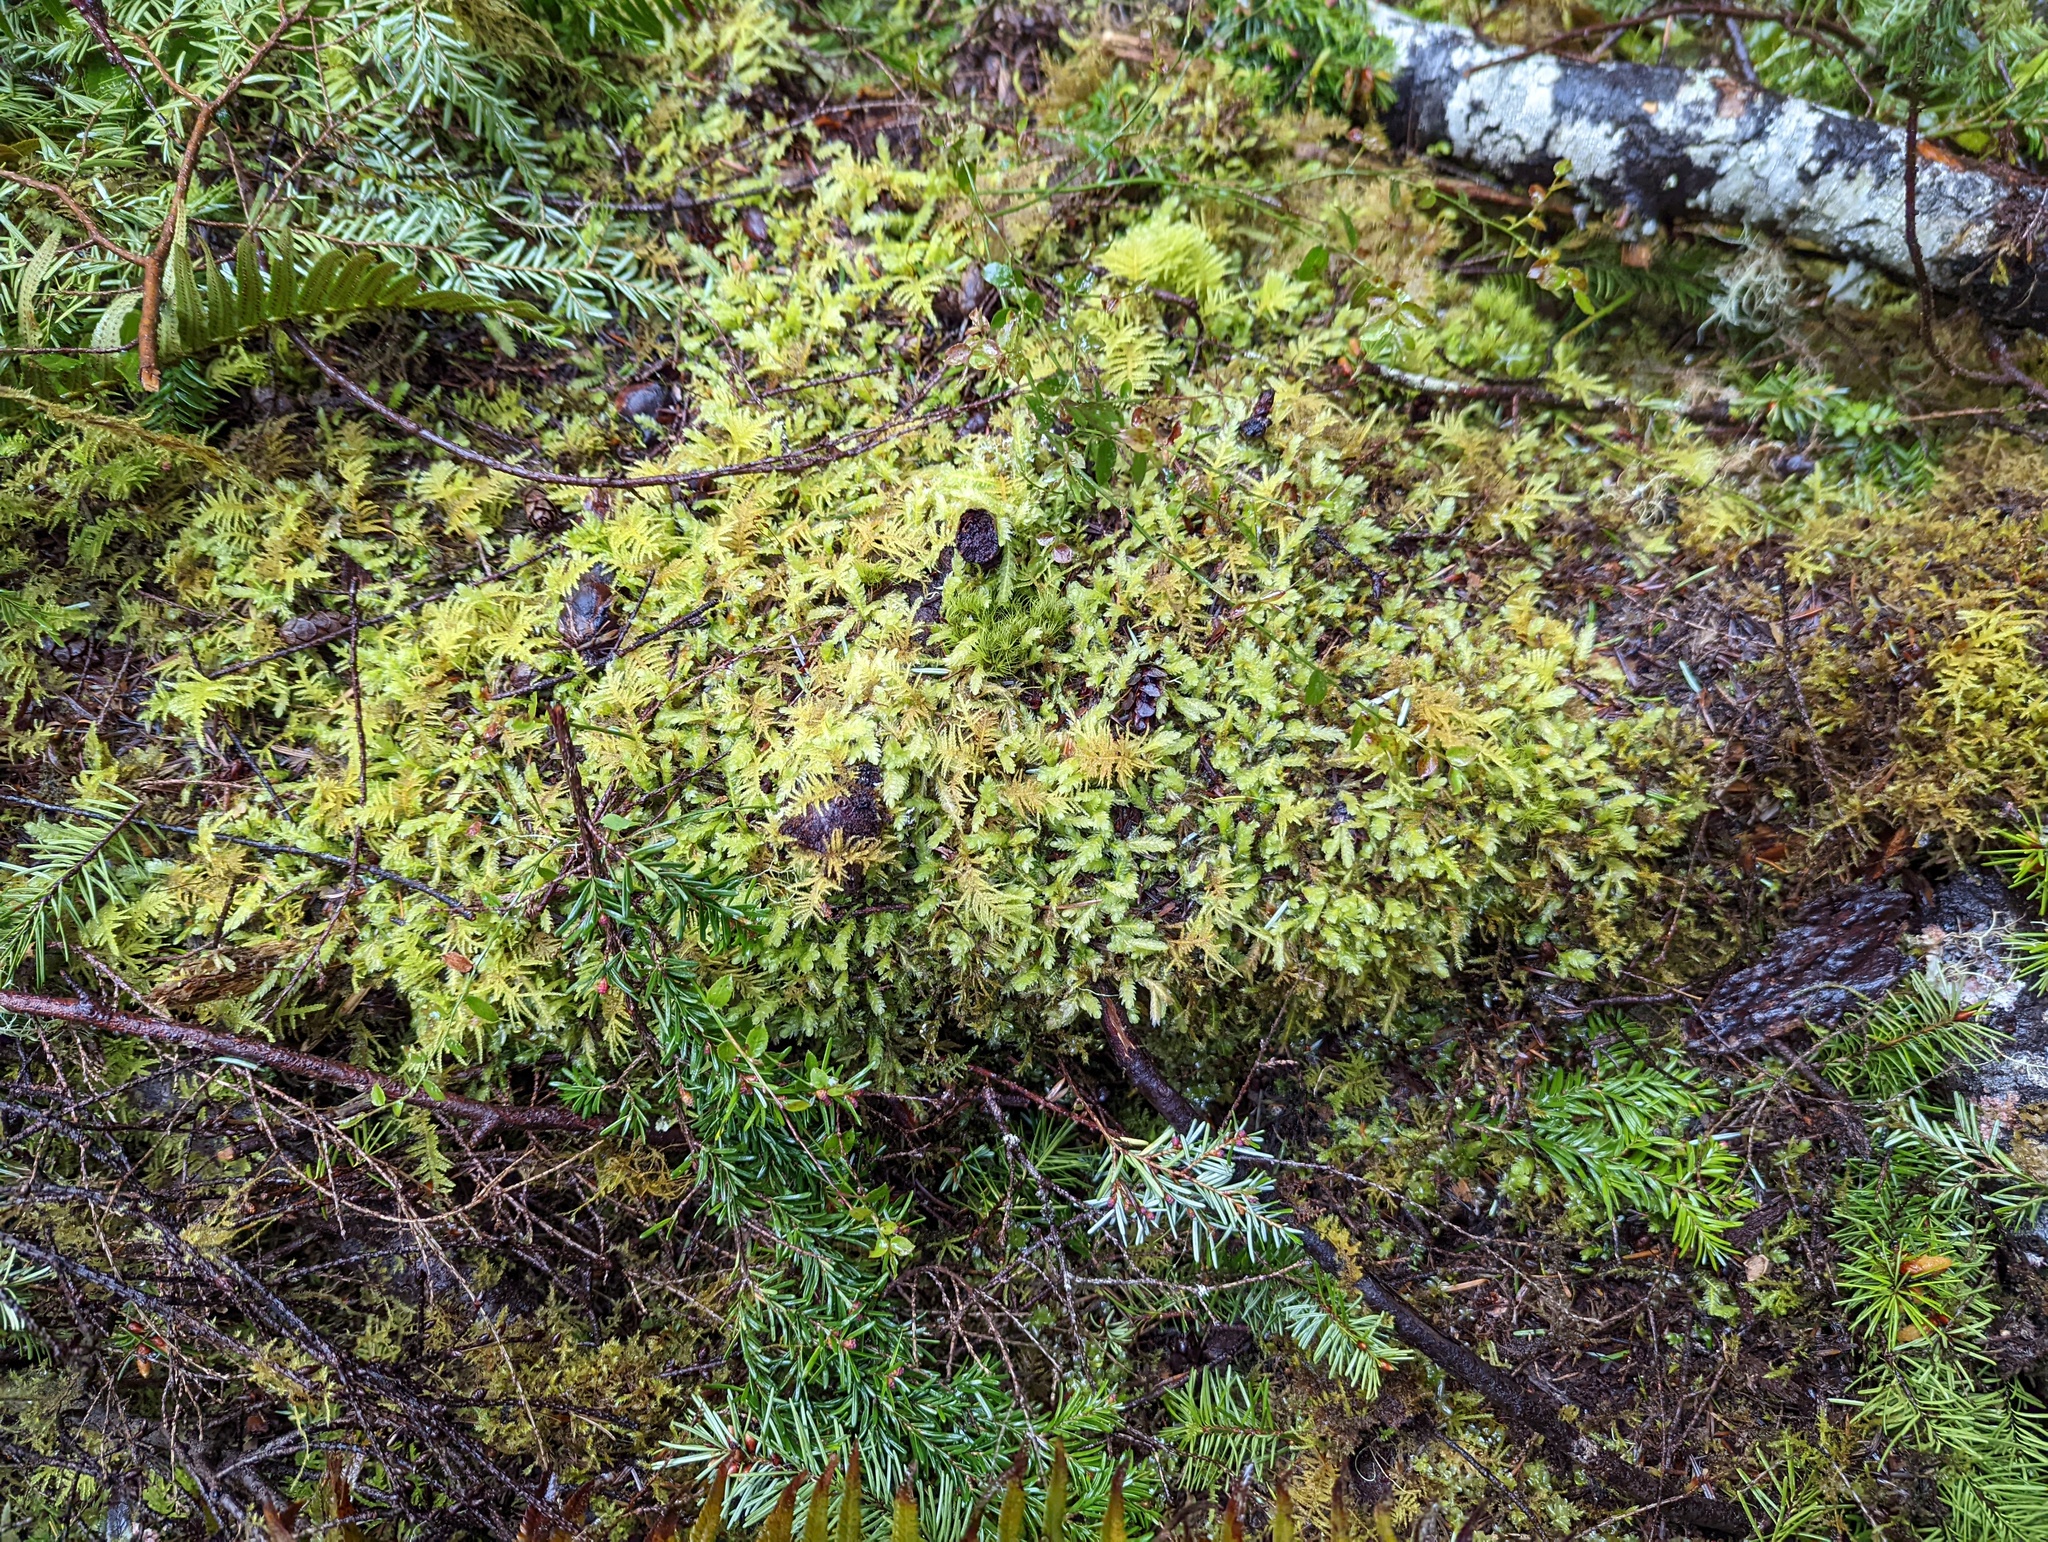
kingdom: Plantae
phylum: Bryophyta
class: Bryopsida
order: Hypnales
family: Plagiotheciaceae
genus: Plagiothecium
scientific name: Plagiothecium undulatum
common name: Waved silk-moss
